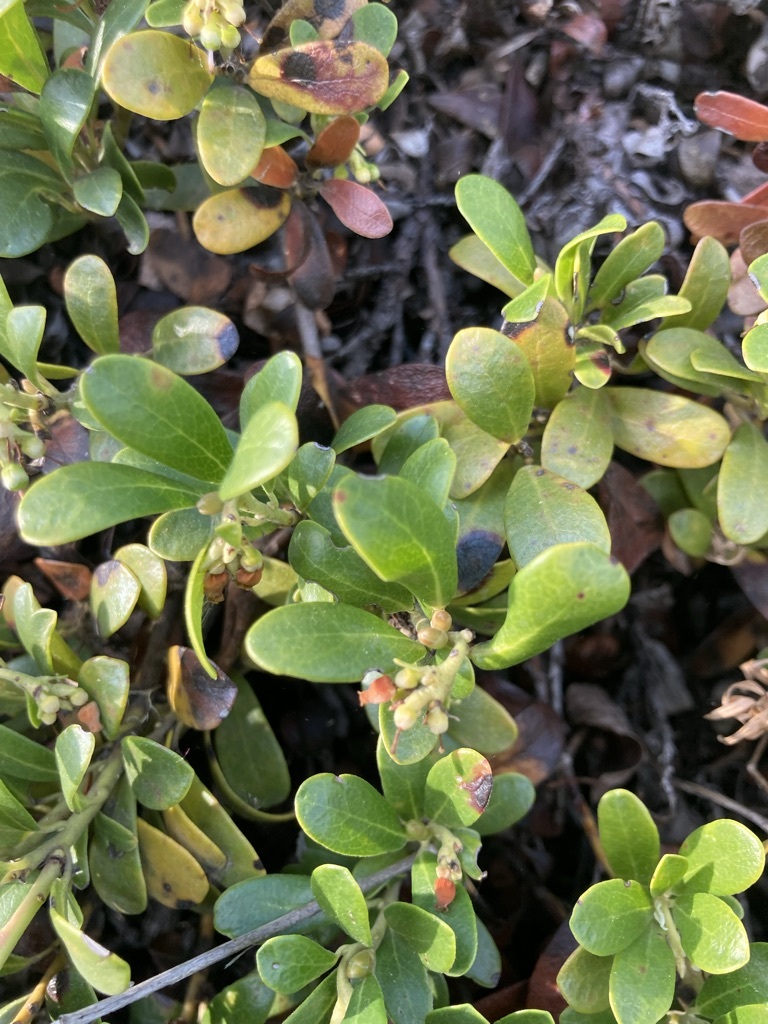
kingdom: Plantae
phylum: Tracheophyta
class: Magnoliopsida
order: Ericales
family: Ericaceae
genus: Arctostaphylos
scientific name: Arctostaphylos uva-ursi
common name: Bearberry
